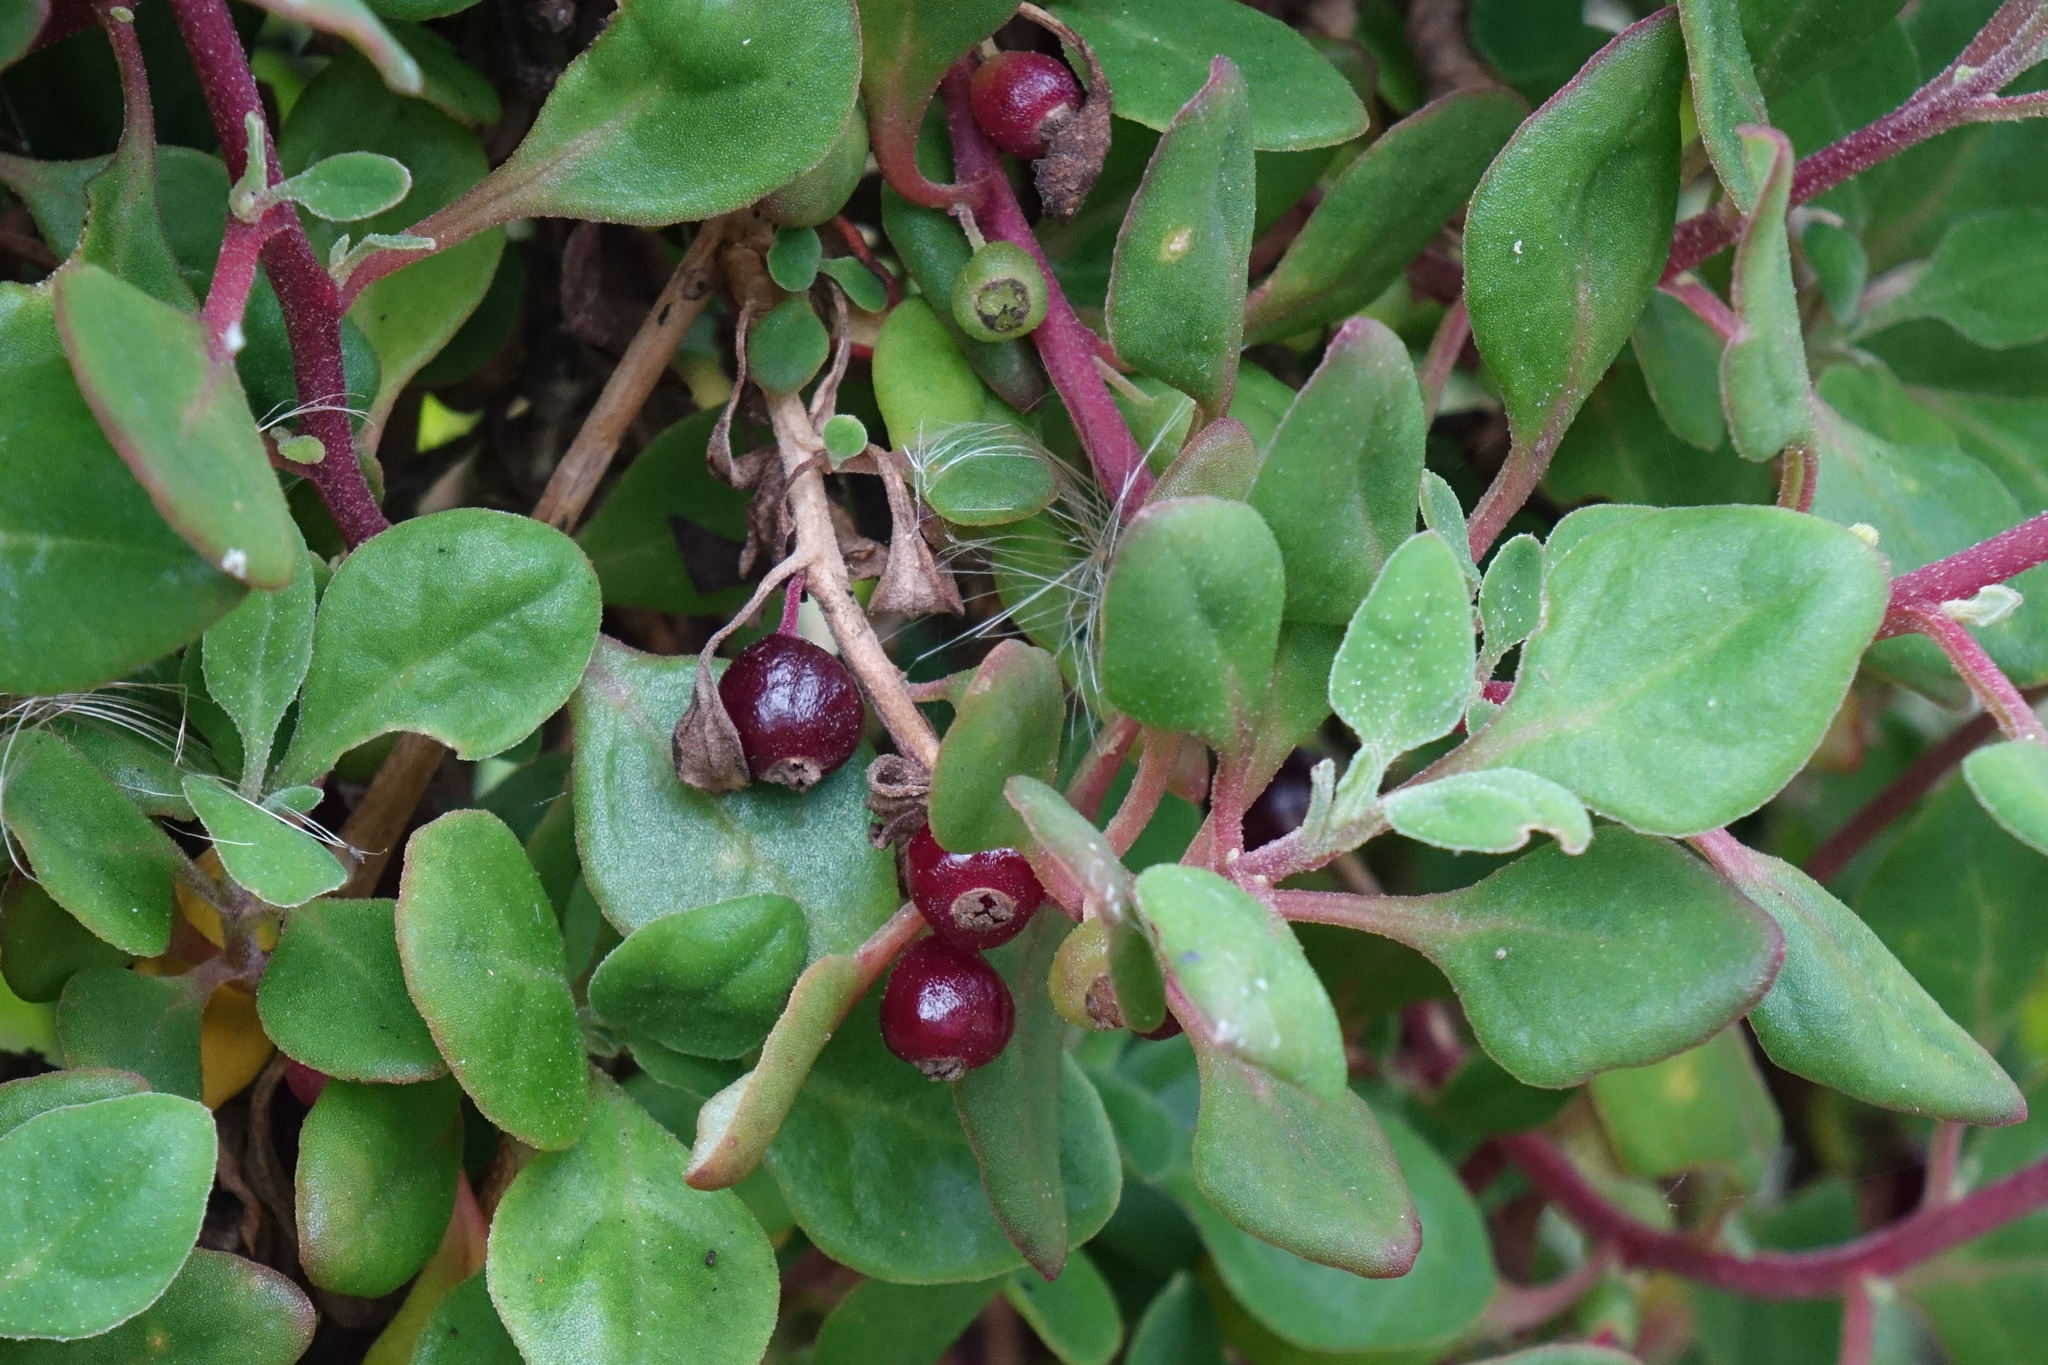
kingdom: Plantae
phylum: Tracheophyta
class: Magnoliopsida
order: Caryophyllales
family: Aizoaceae
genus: Tetragonia
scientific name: Tetragonia implexicoma
